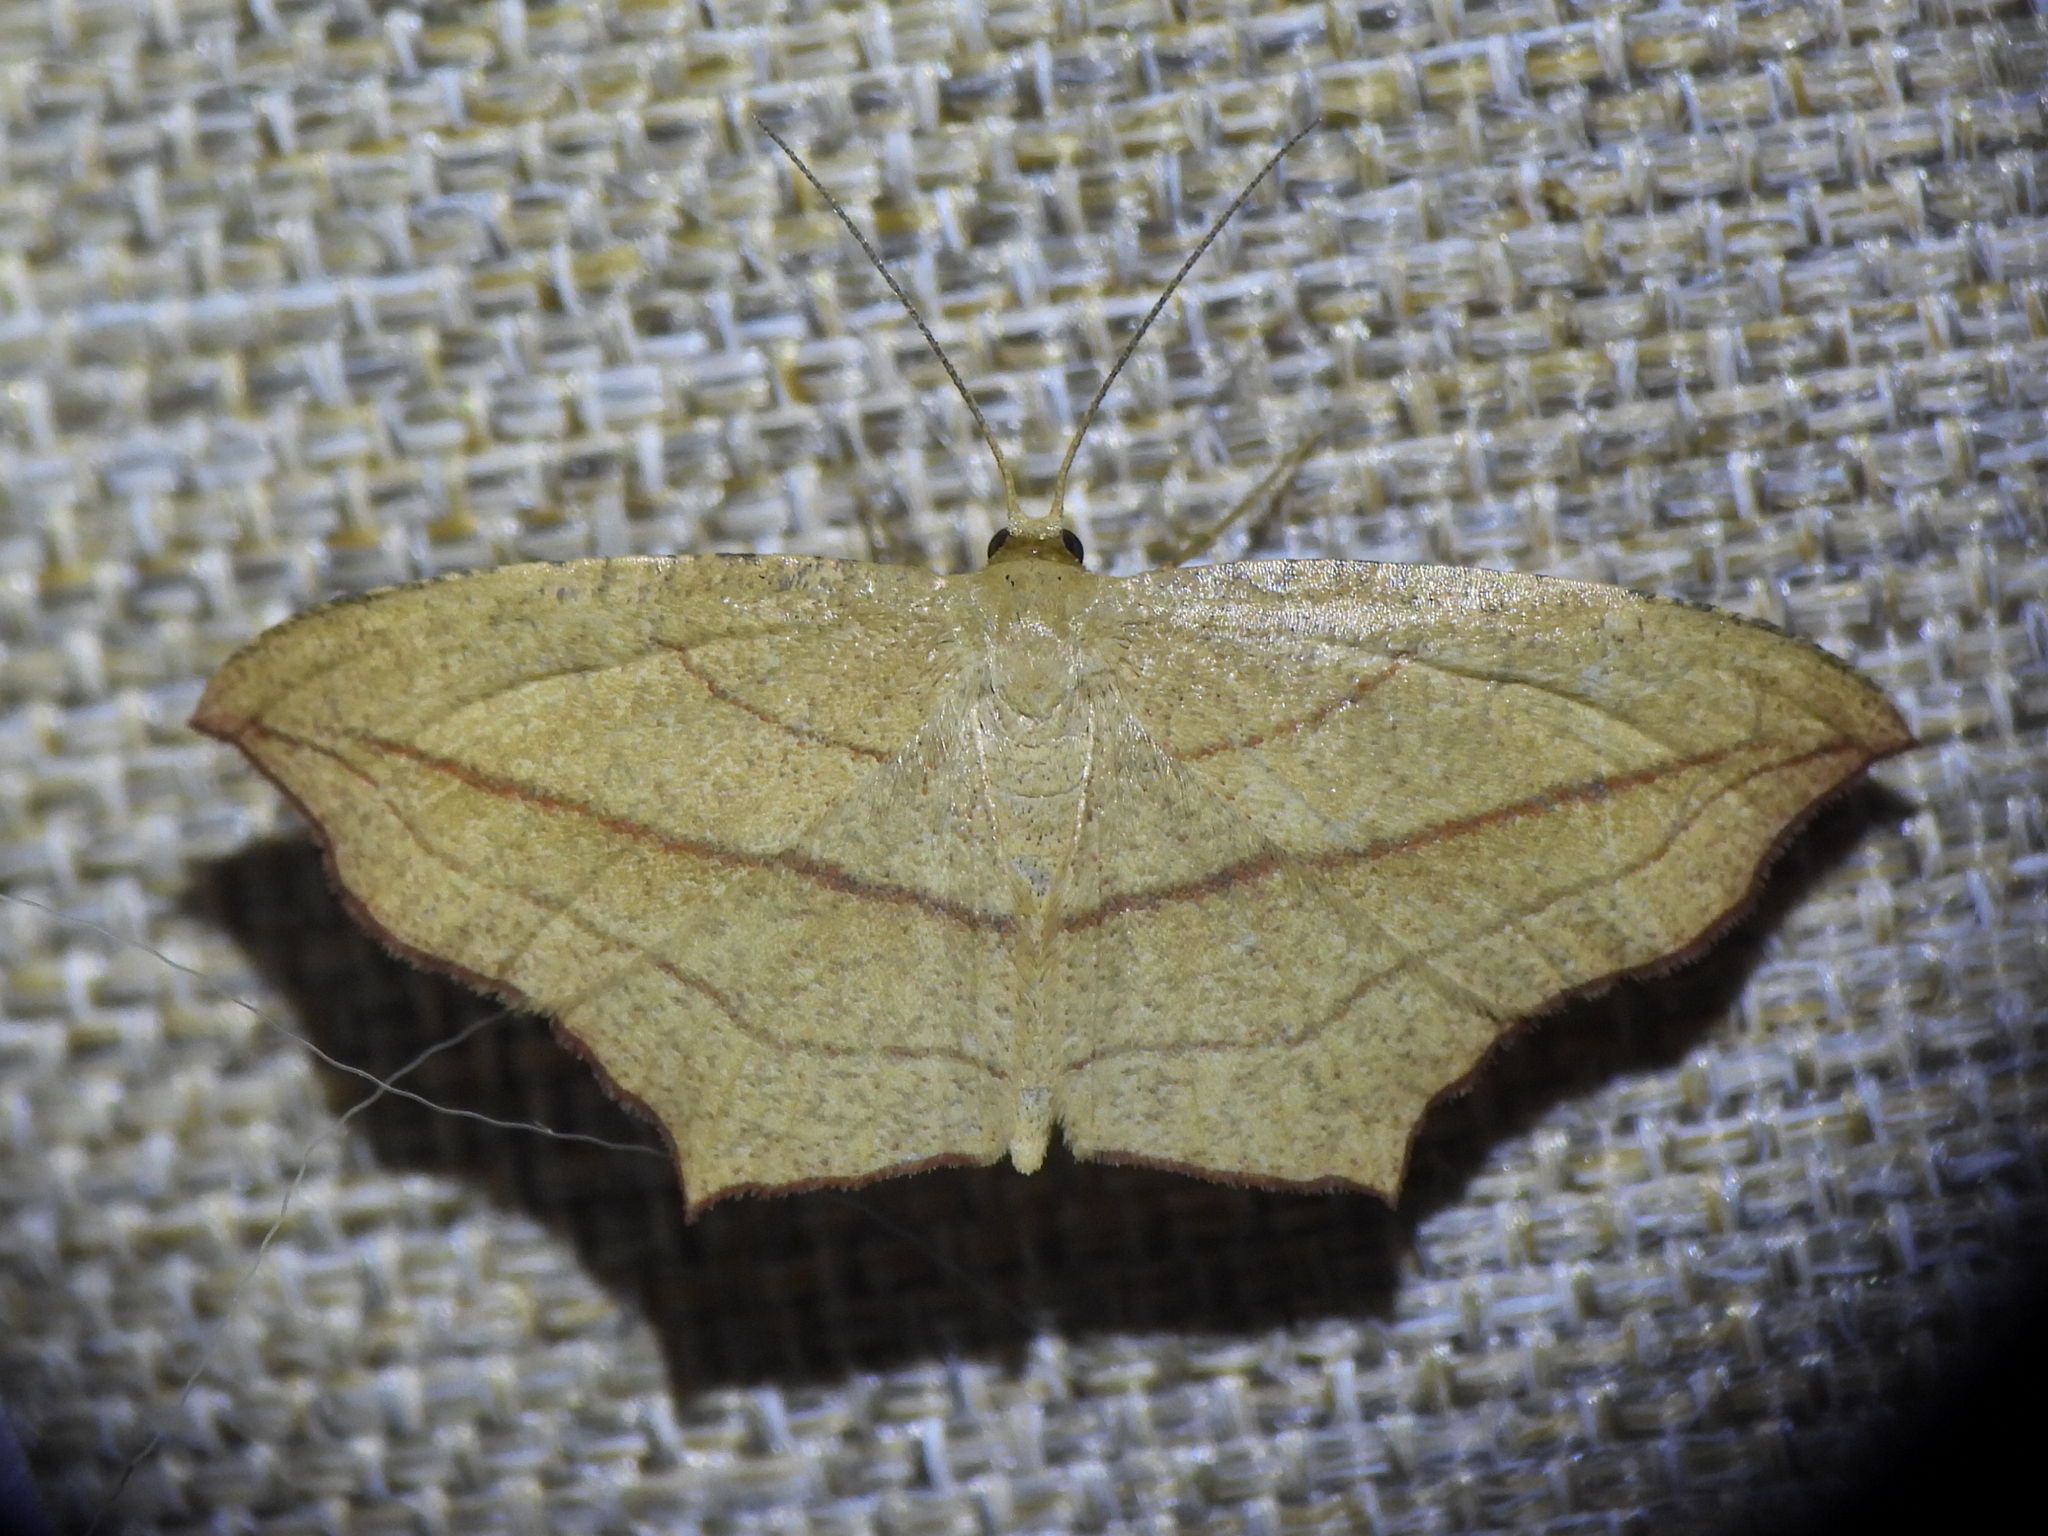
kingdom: Animalia
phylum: Arthropoda
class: Insecta
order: Lepidoptera
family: Geometridae
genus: Timandra
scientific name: Timandra amaturaria
